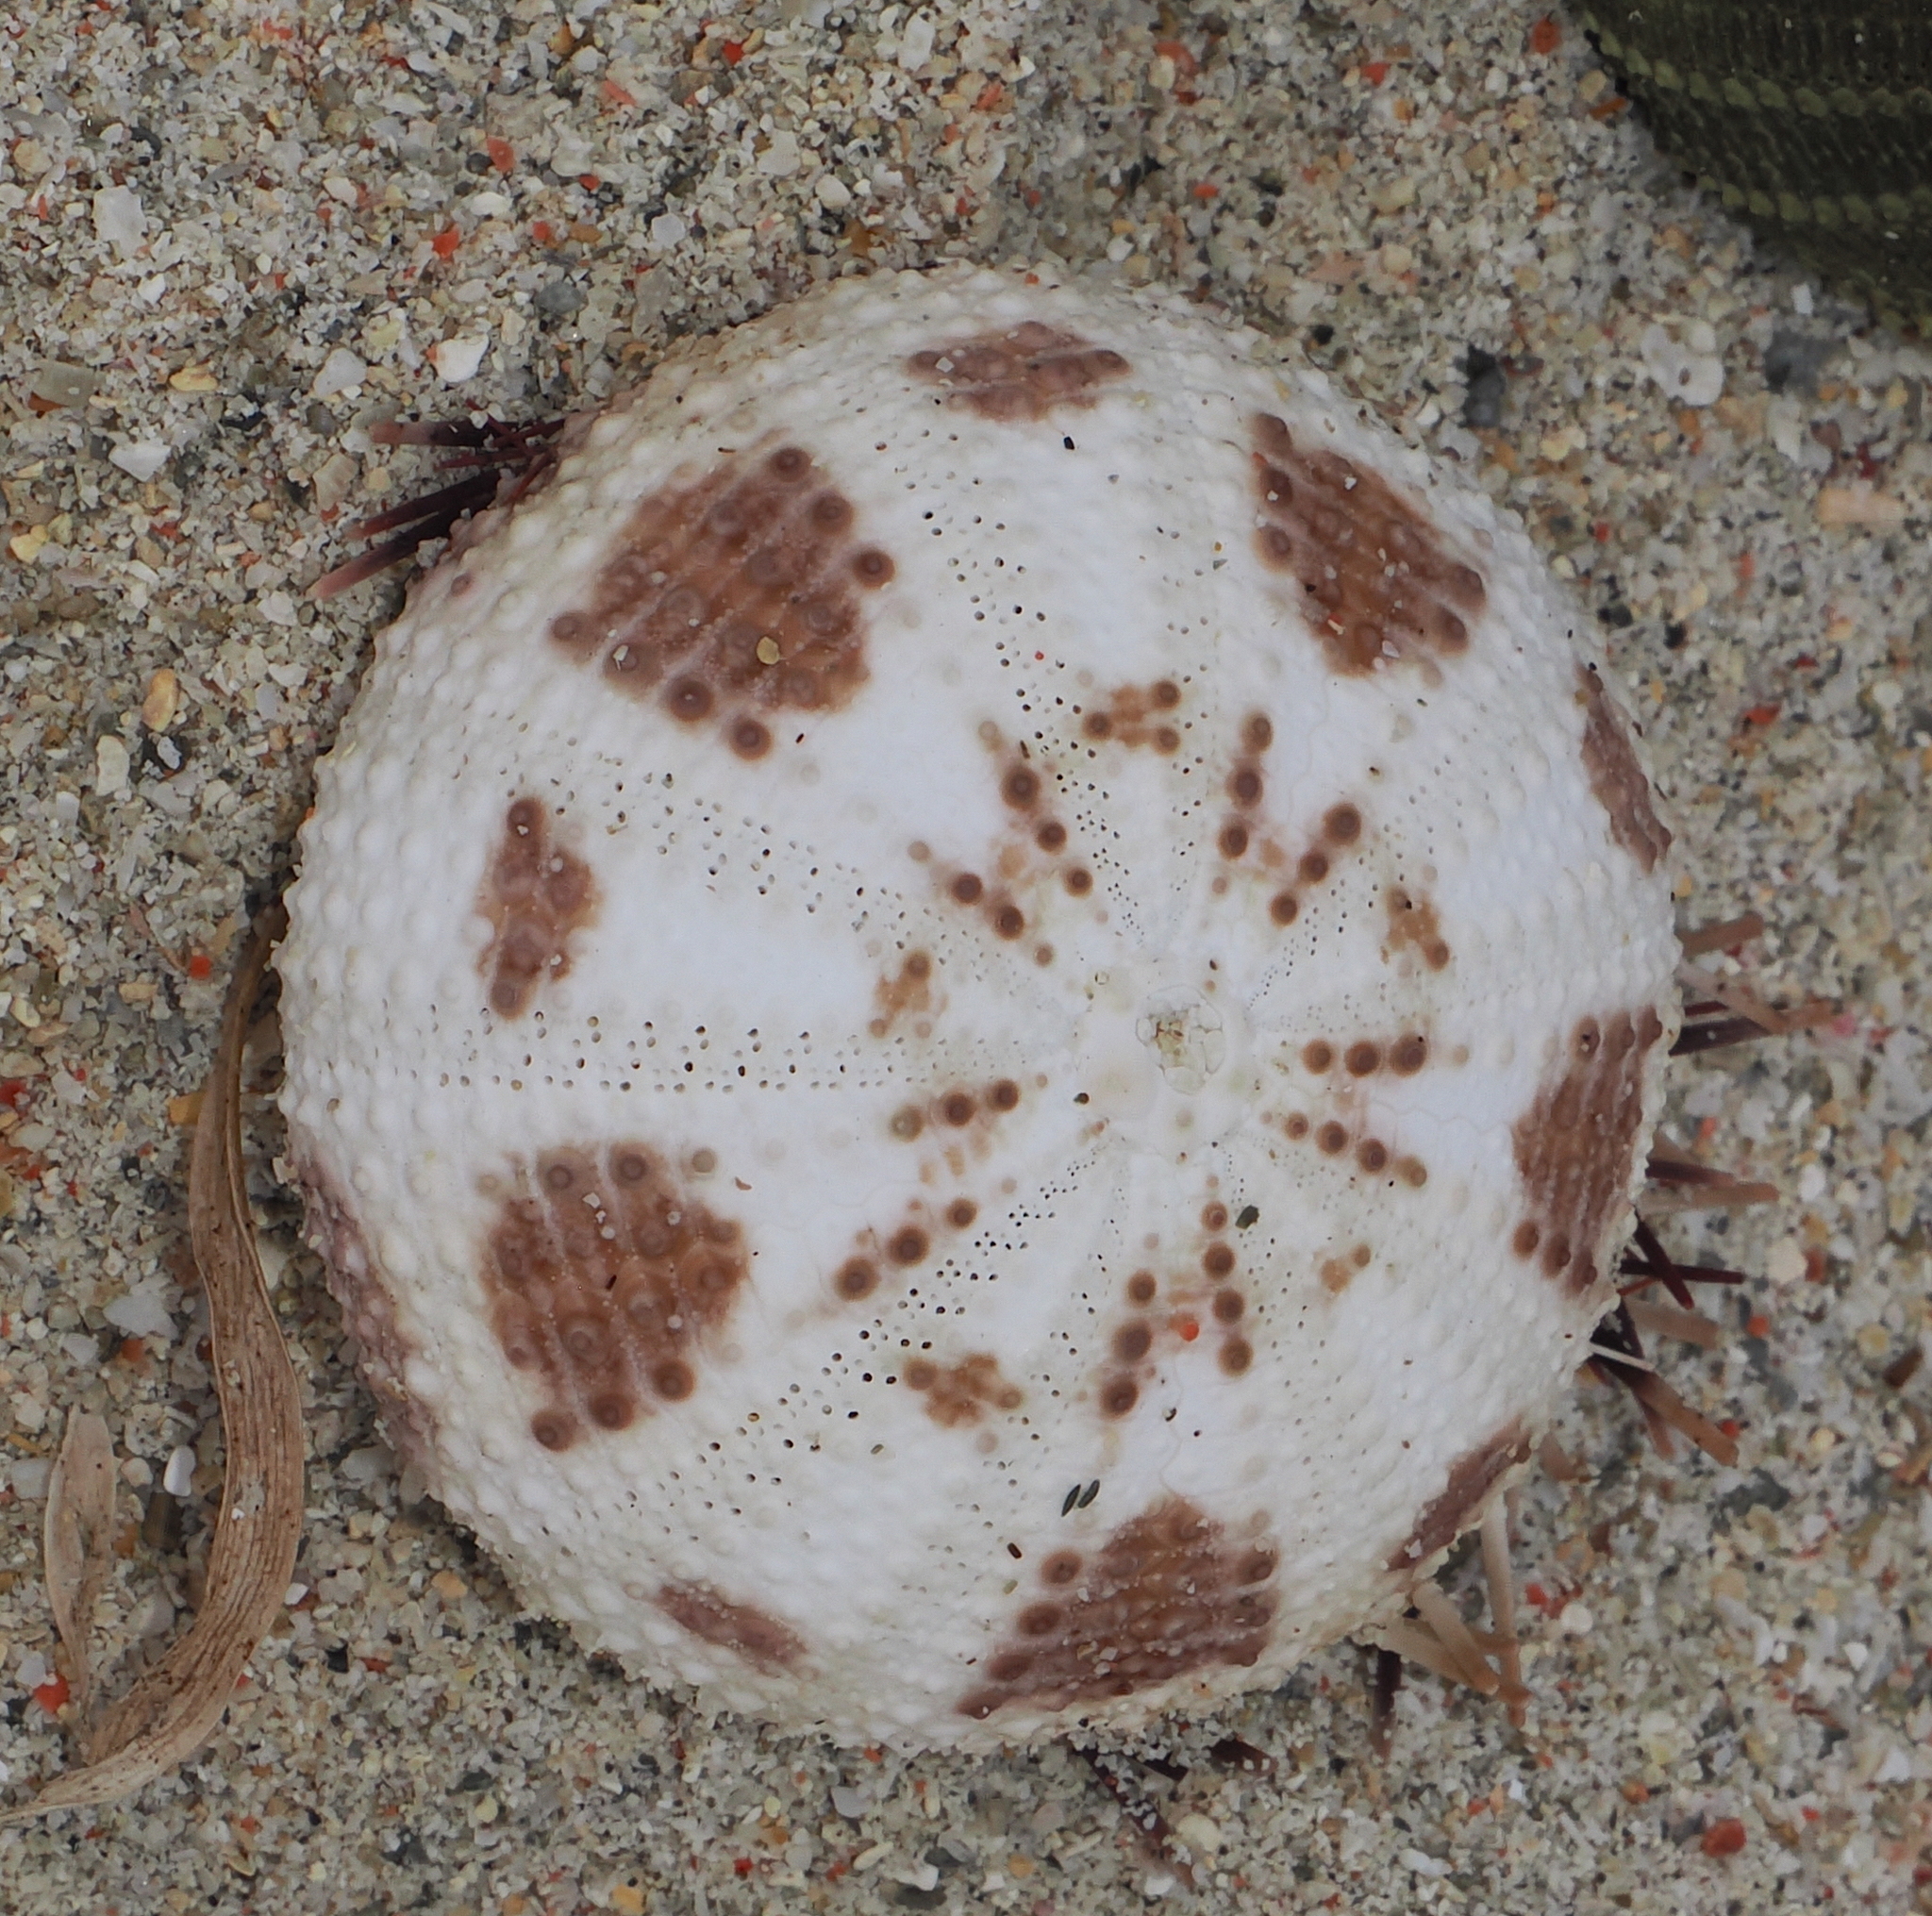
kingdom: Animalia
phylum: Echinodermata
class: Echinoidea
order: Camarodonta
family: Toxopneustidae
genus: Pseudoboletia
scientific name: Pseudoboletia maculata
